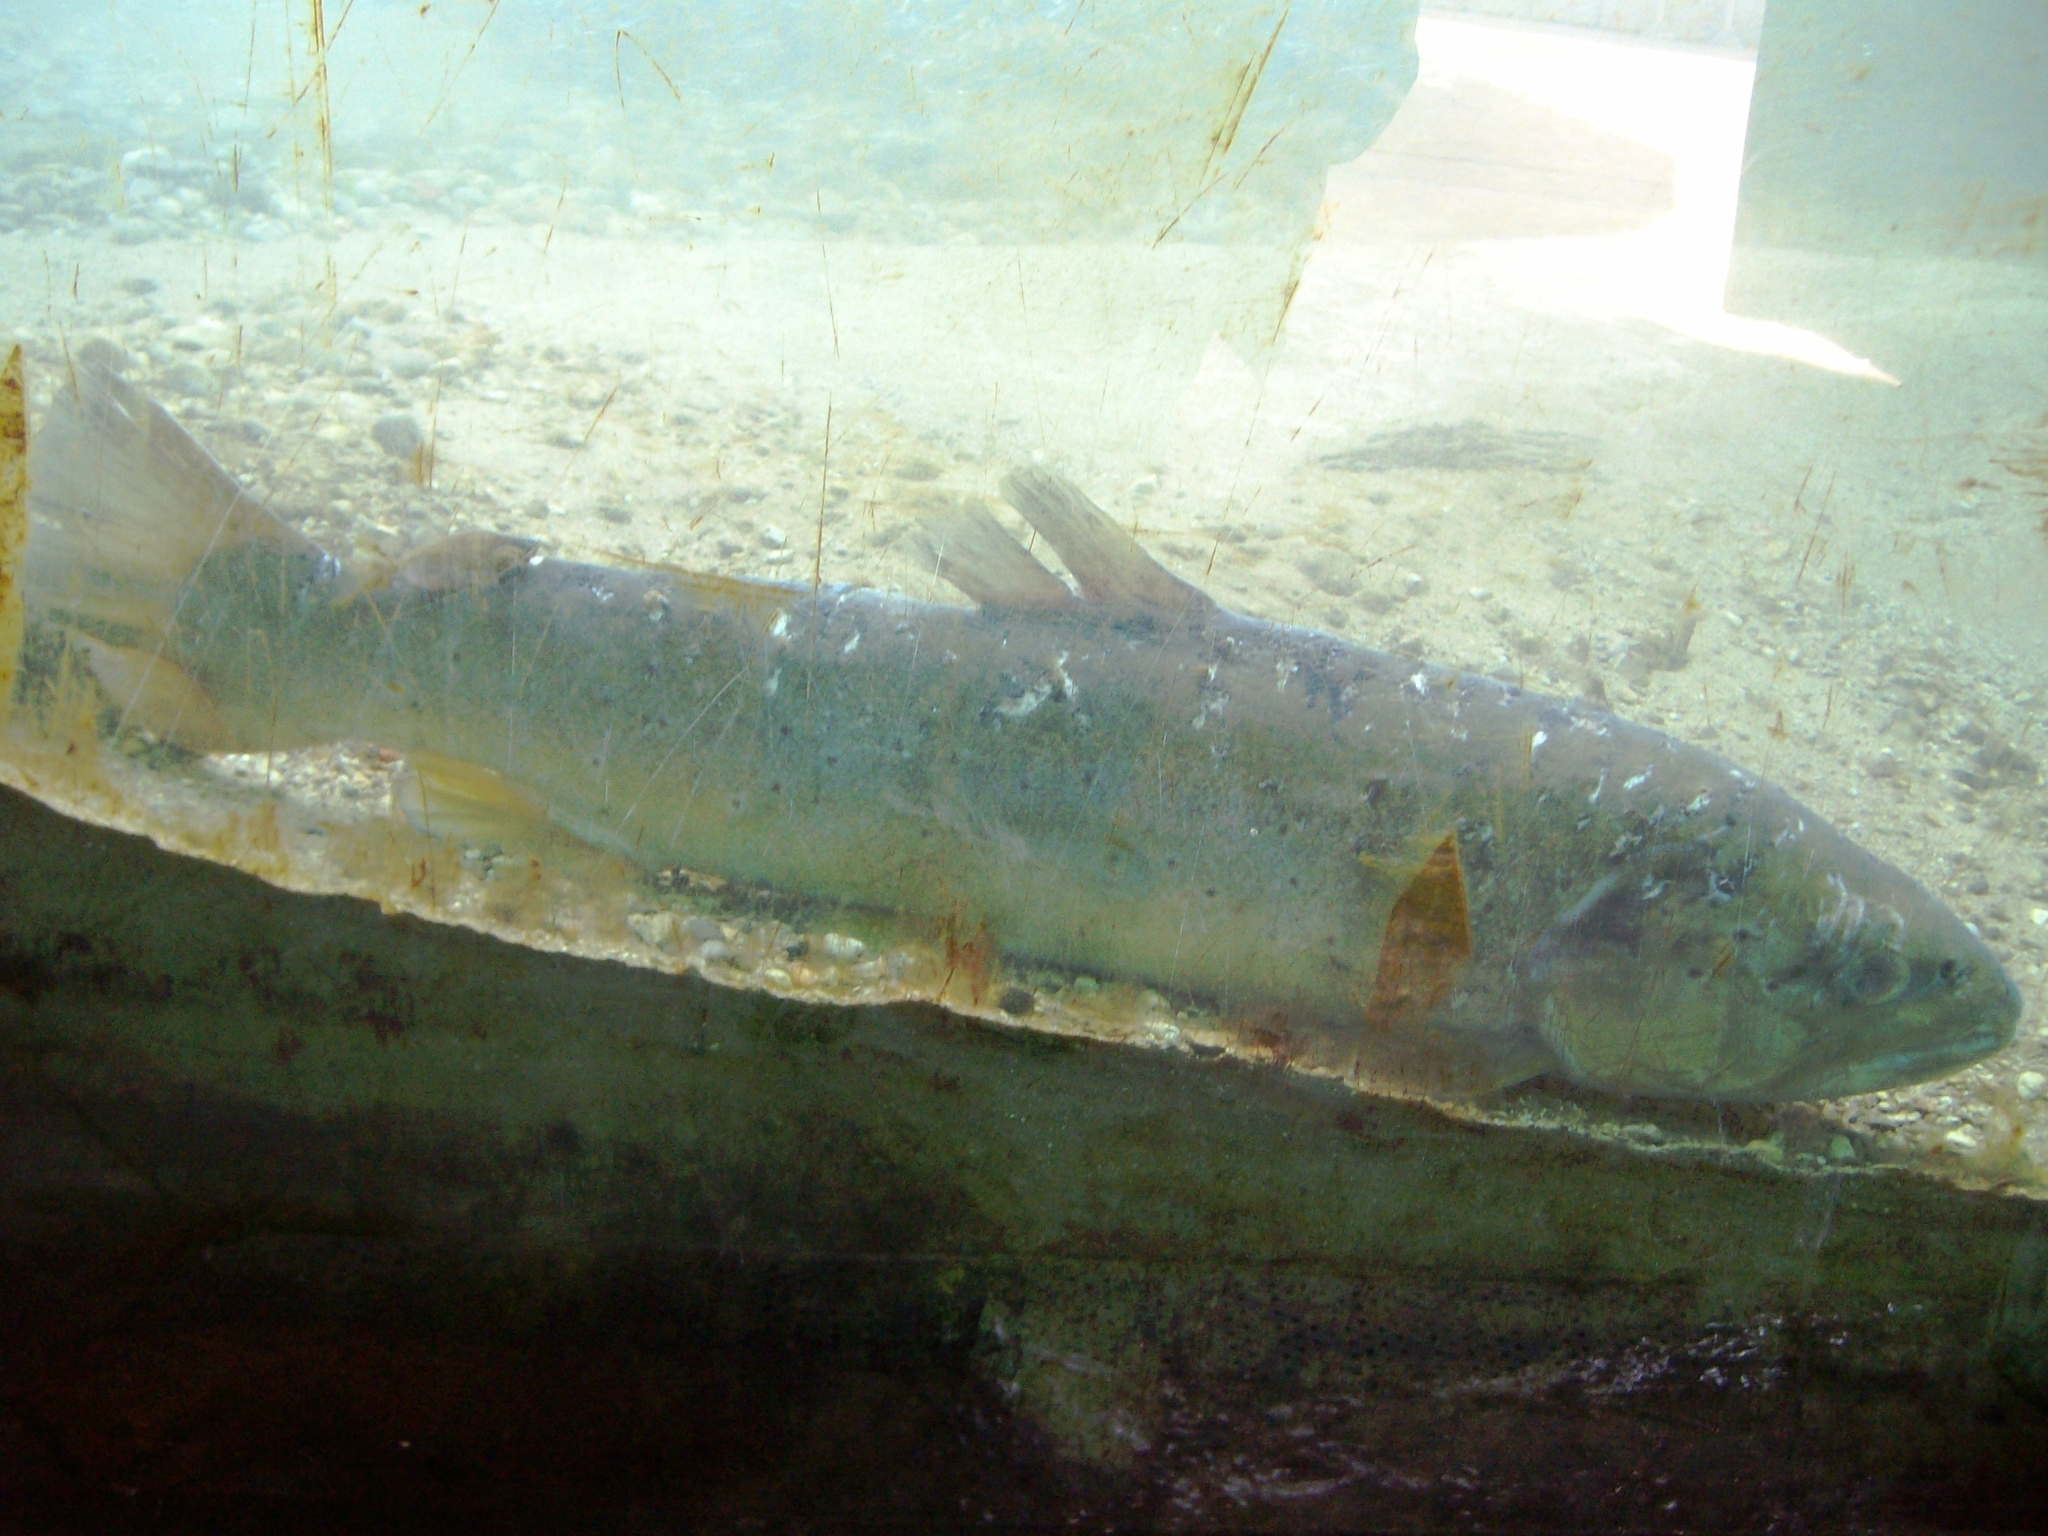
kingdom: Animalia
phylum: Chordata
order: Salmoniformes
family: Salmonidae
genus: Salmo
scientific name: Salmo trutta
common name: Brown trout
